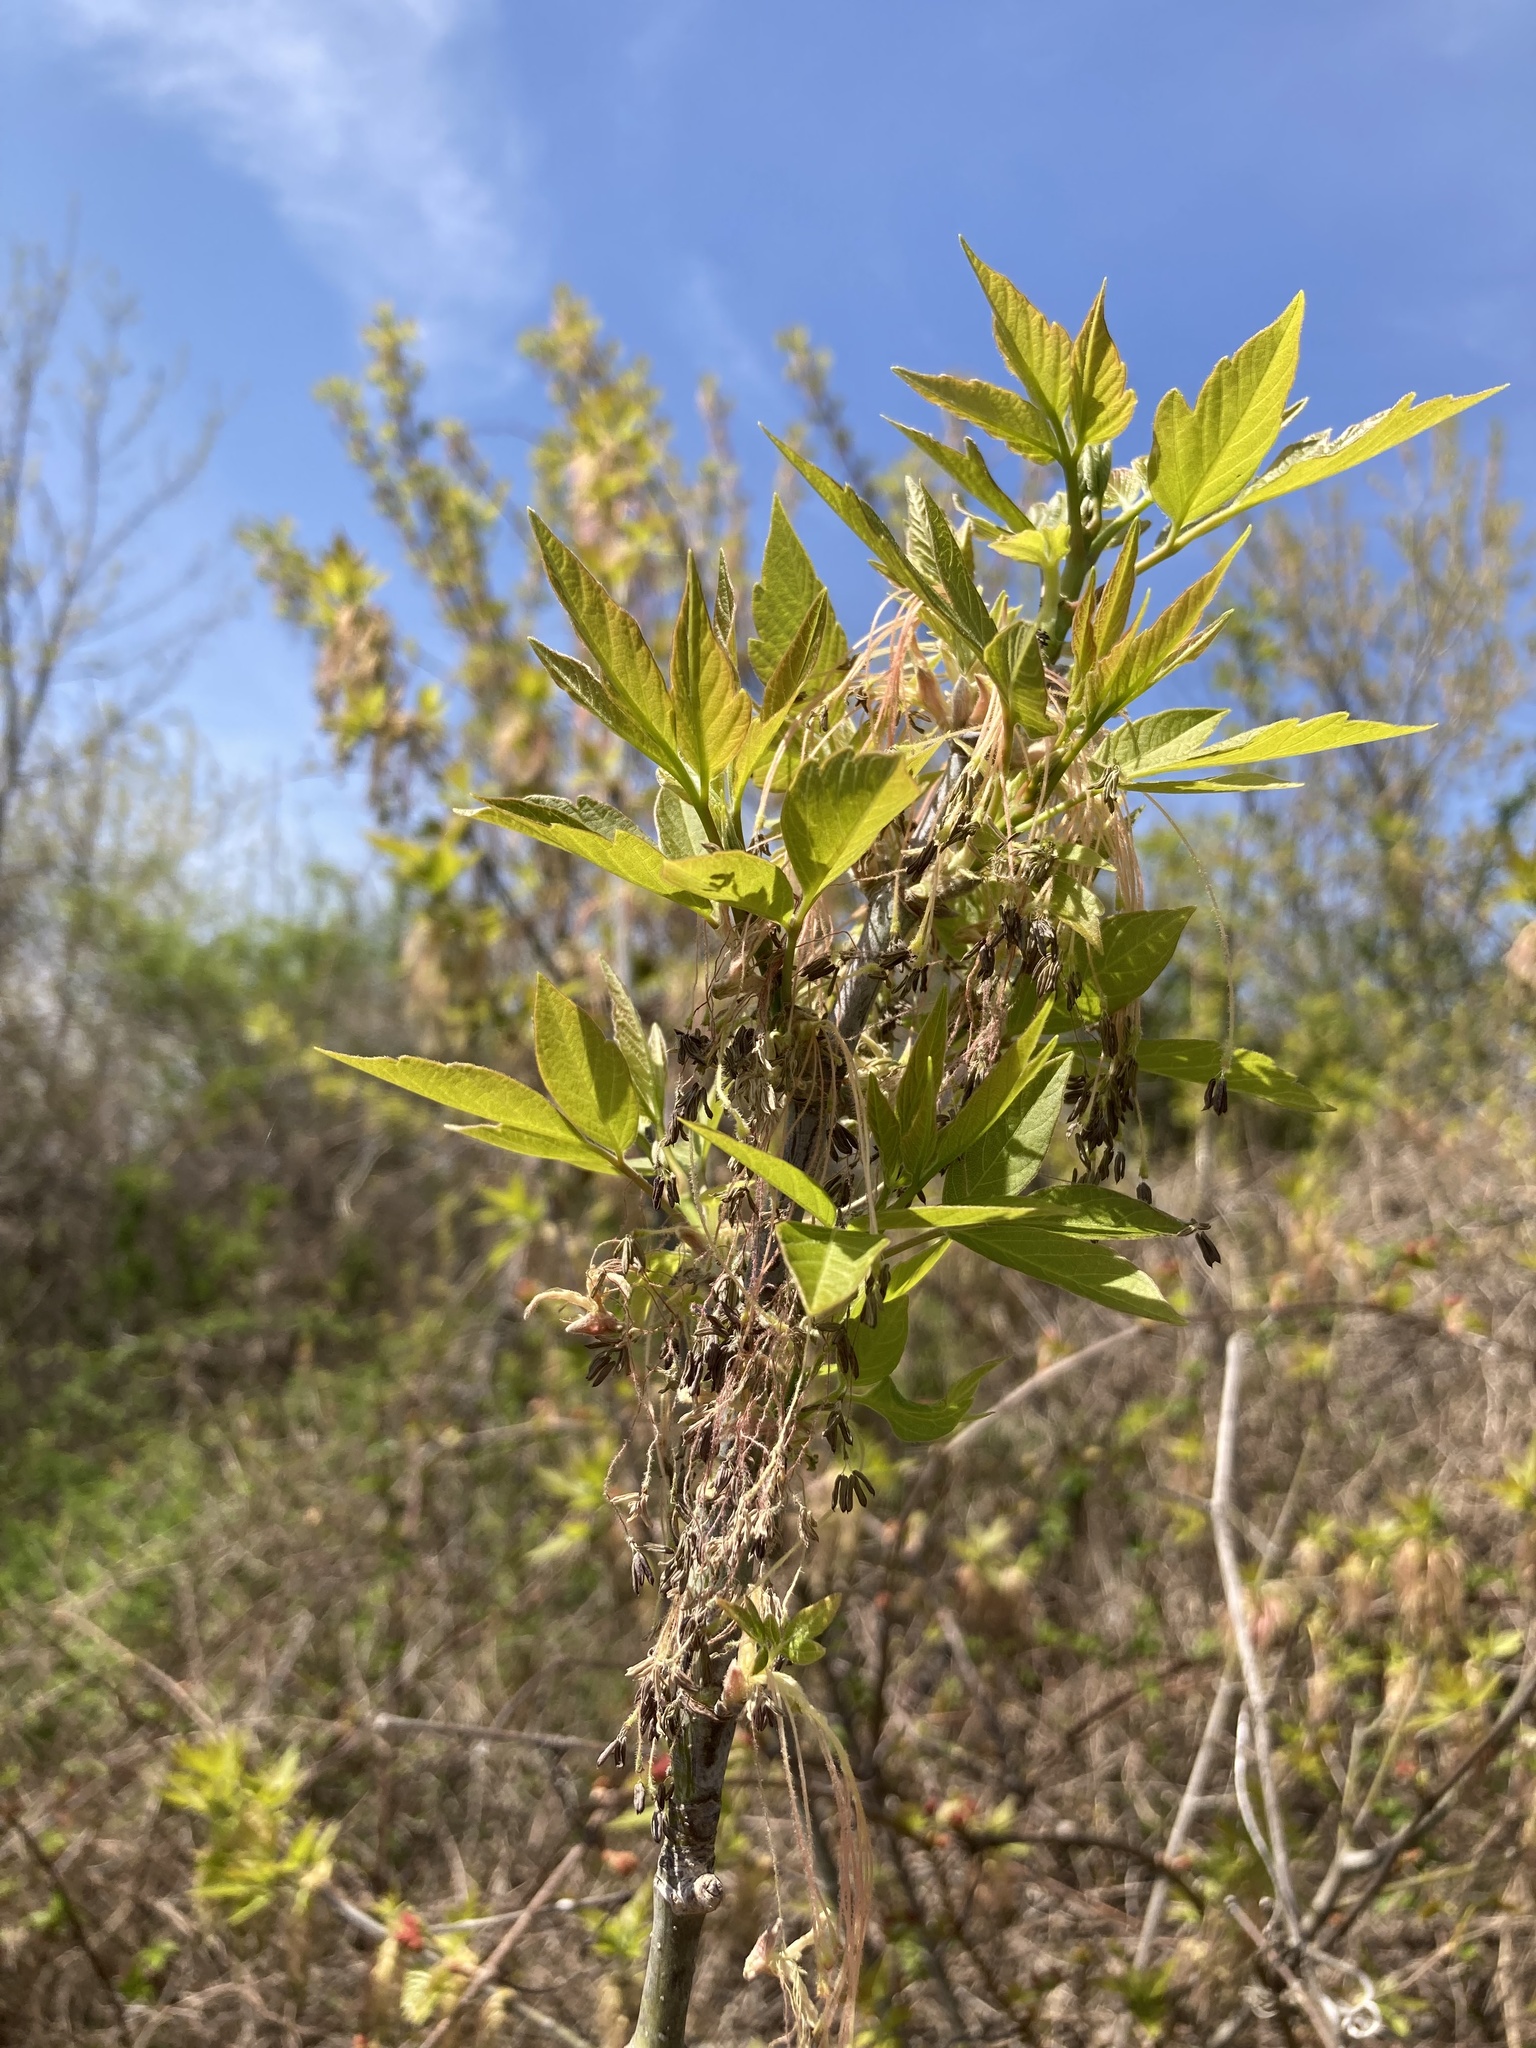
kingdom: Plantae
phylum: Tracheophyta
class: Magnoliopsida
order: Sapindales
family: Sapindaceae
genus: Acer
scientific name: Acer negundo
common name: Ashleaf maple
